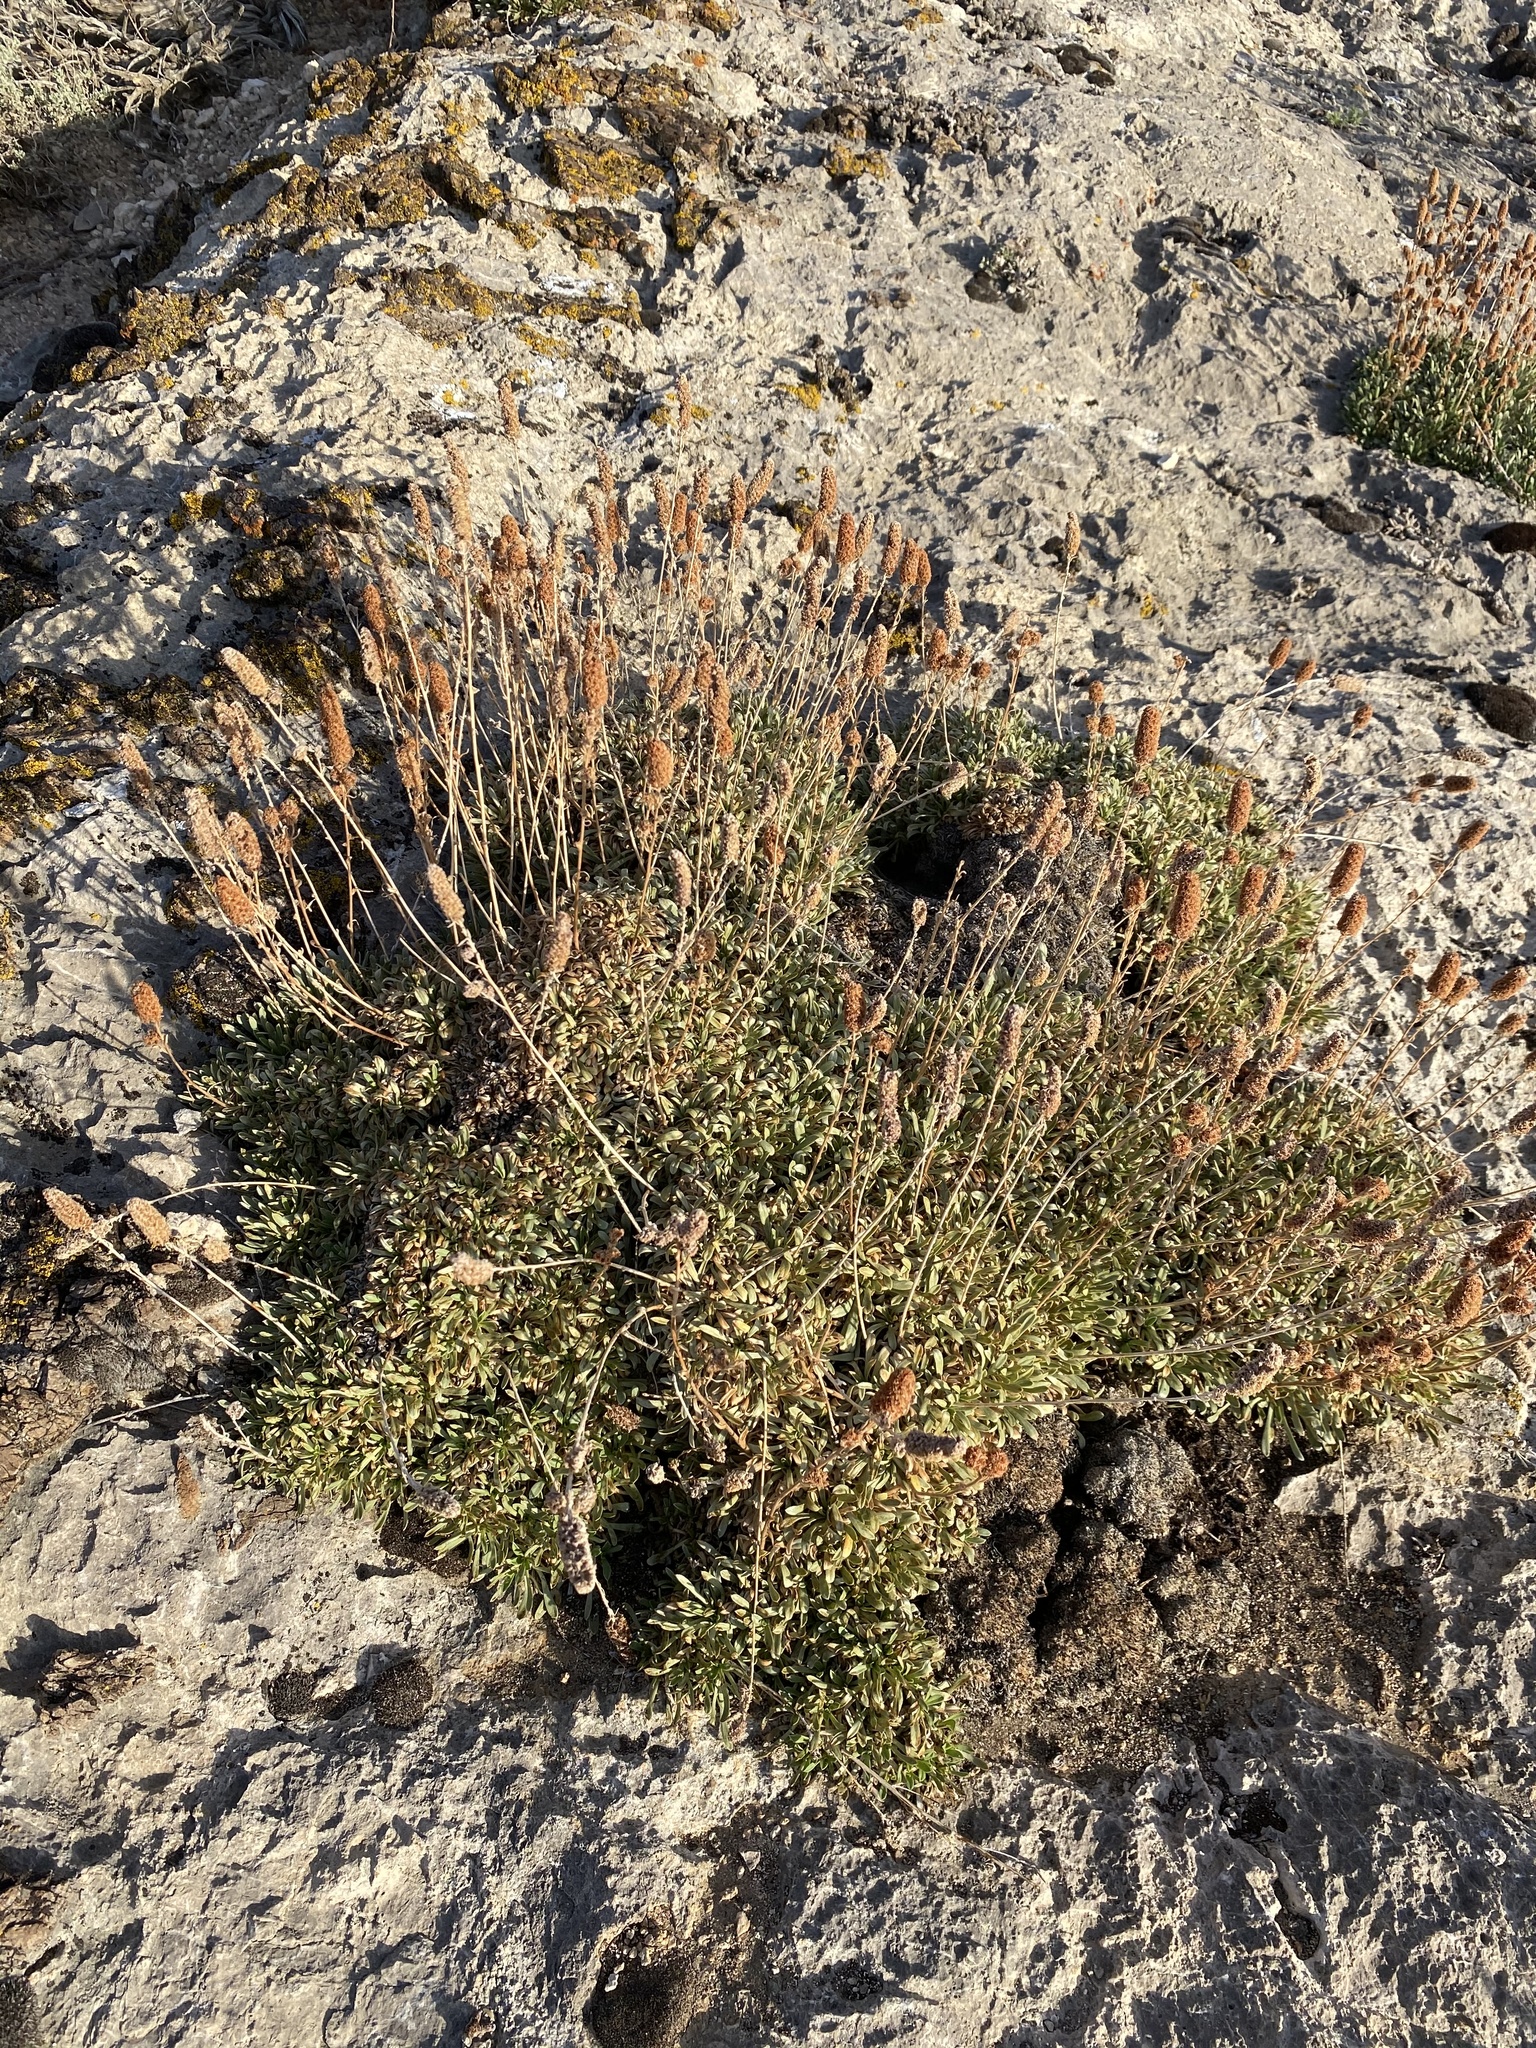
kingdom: Plantae
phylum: Tracheophyta
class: Magnoliopsida
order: Rosales
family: Rosaceae
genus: Petrophytum
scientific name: Petrophytum caespitosum
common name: Mat rockspirea
